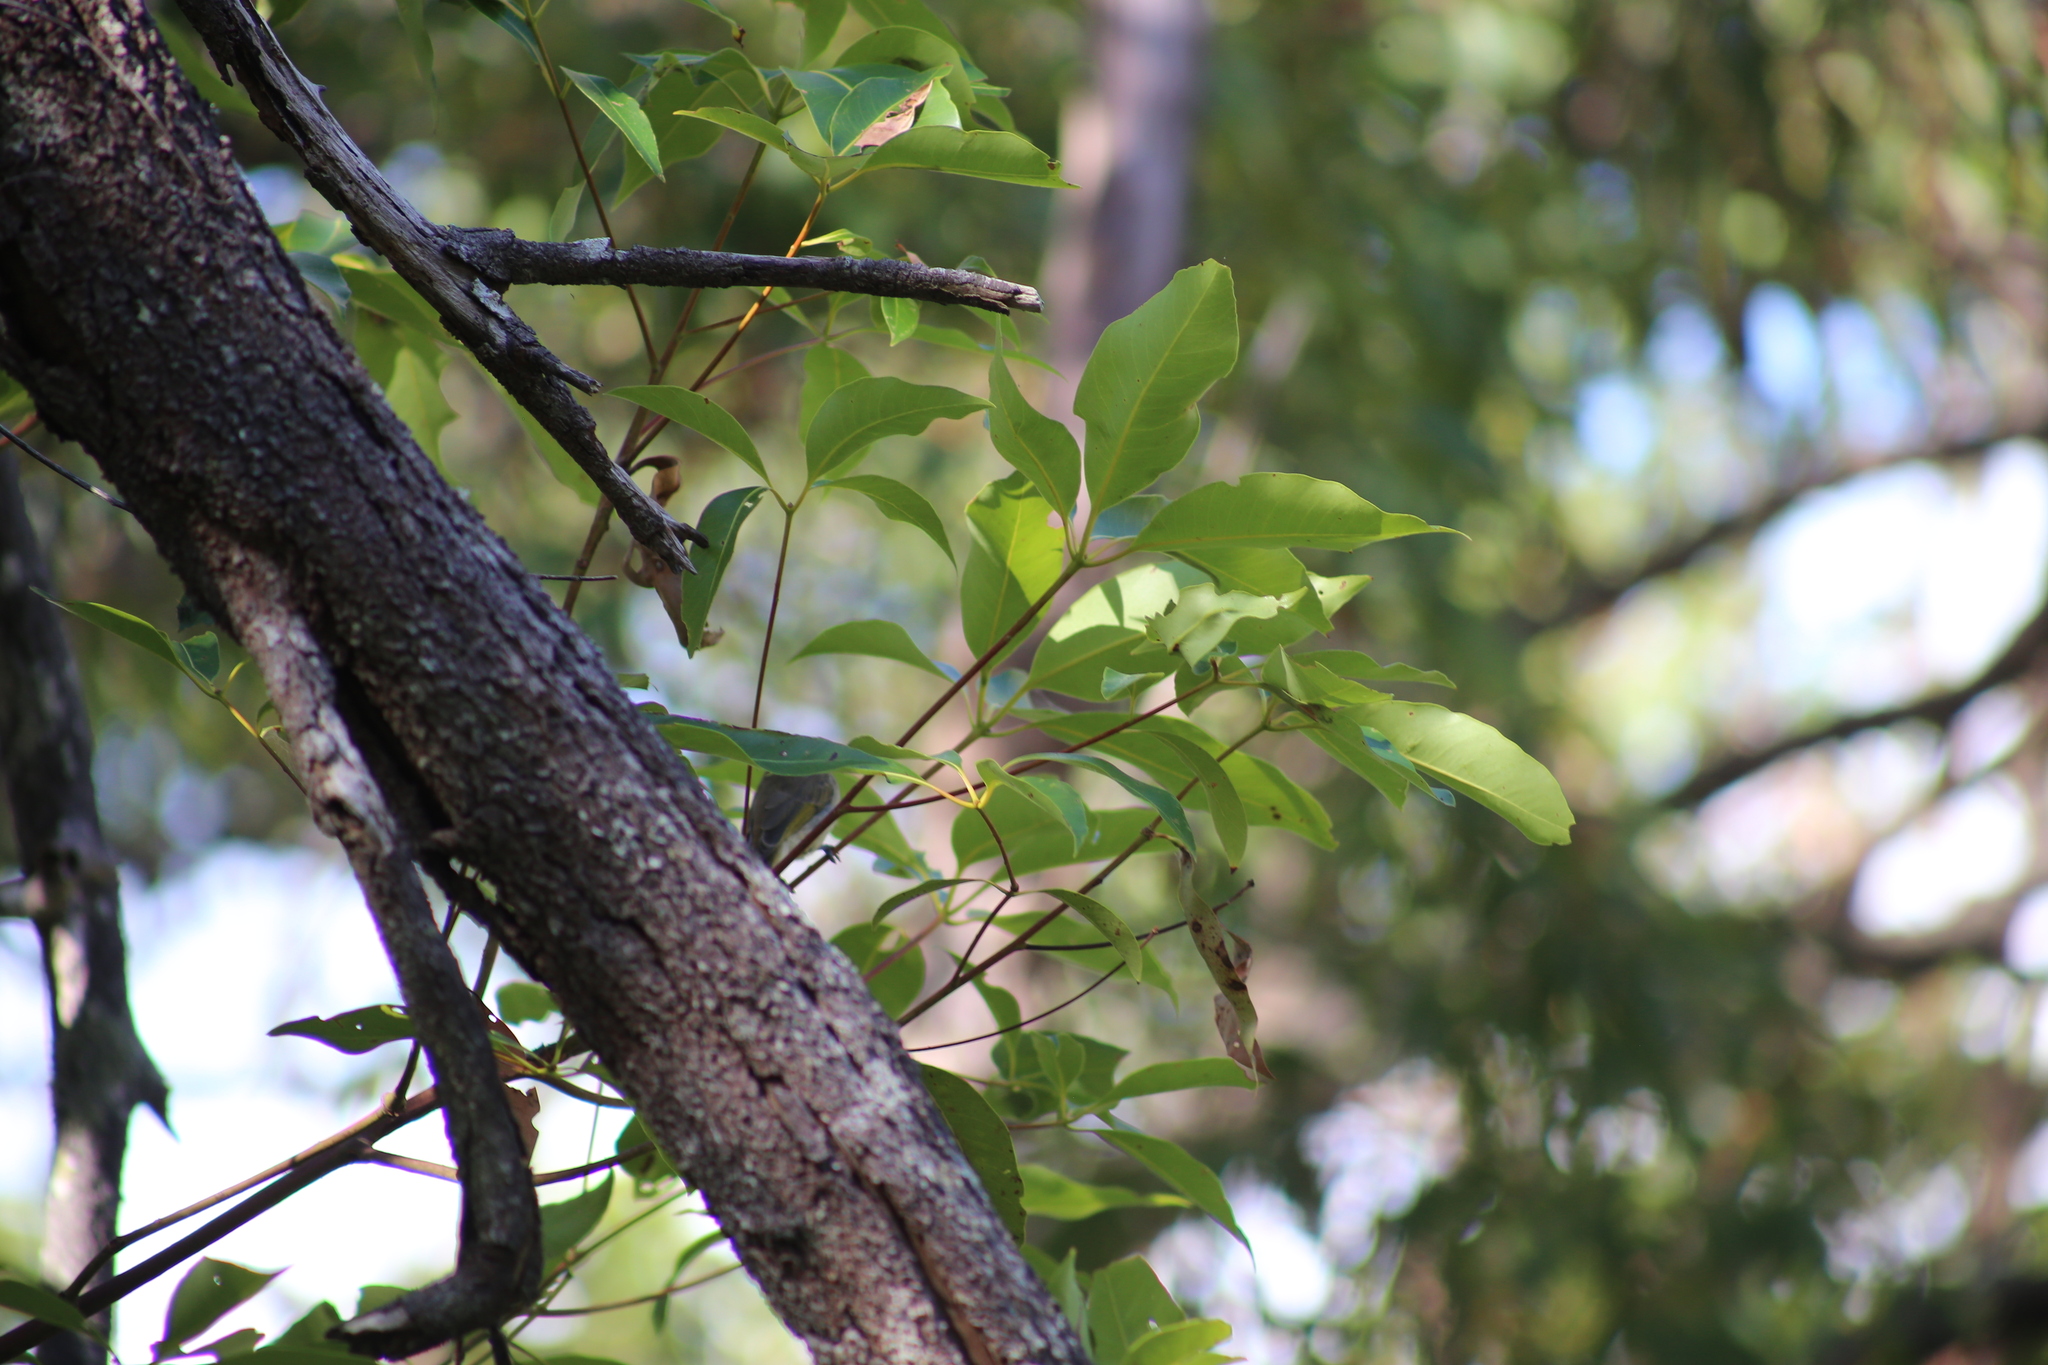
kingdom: Animalia
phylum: Chordata
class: Aves
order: Passeriformes
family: Meliphagidae
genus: Lichmera
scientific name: Lichmera indistincta
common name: Brown honeyeater
